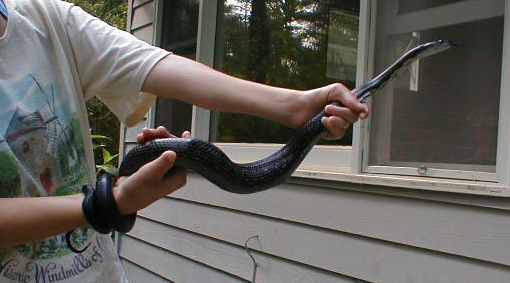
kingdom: Animalia
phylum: Chordata
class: Squamata
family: Colubridae
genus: Pantherophis
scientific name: Pantherophis
